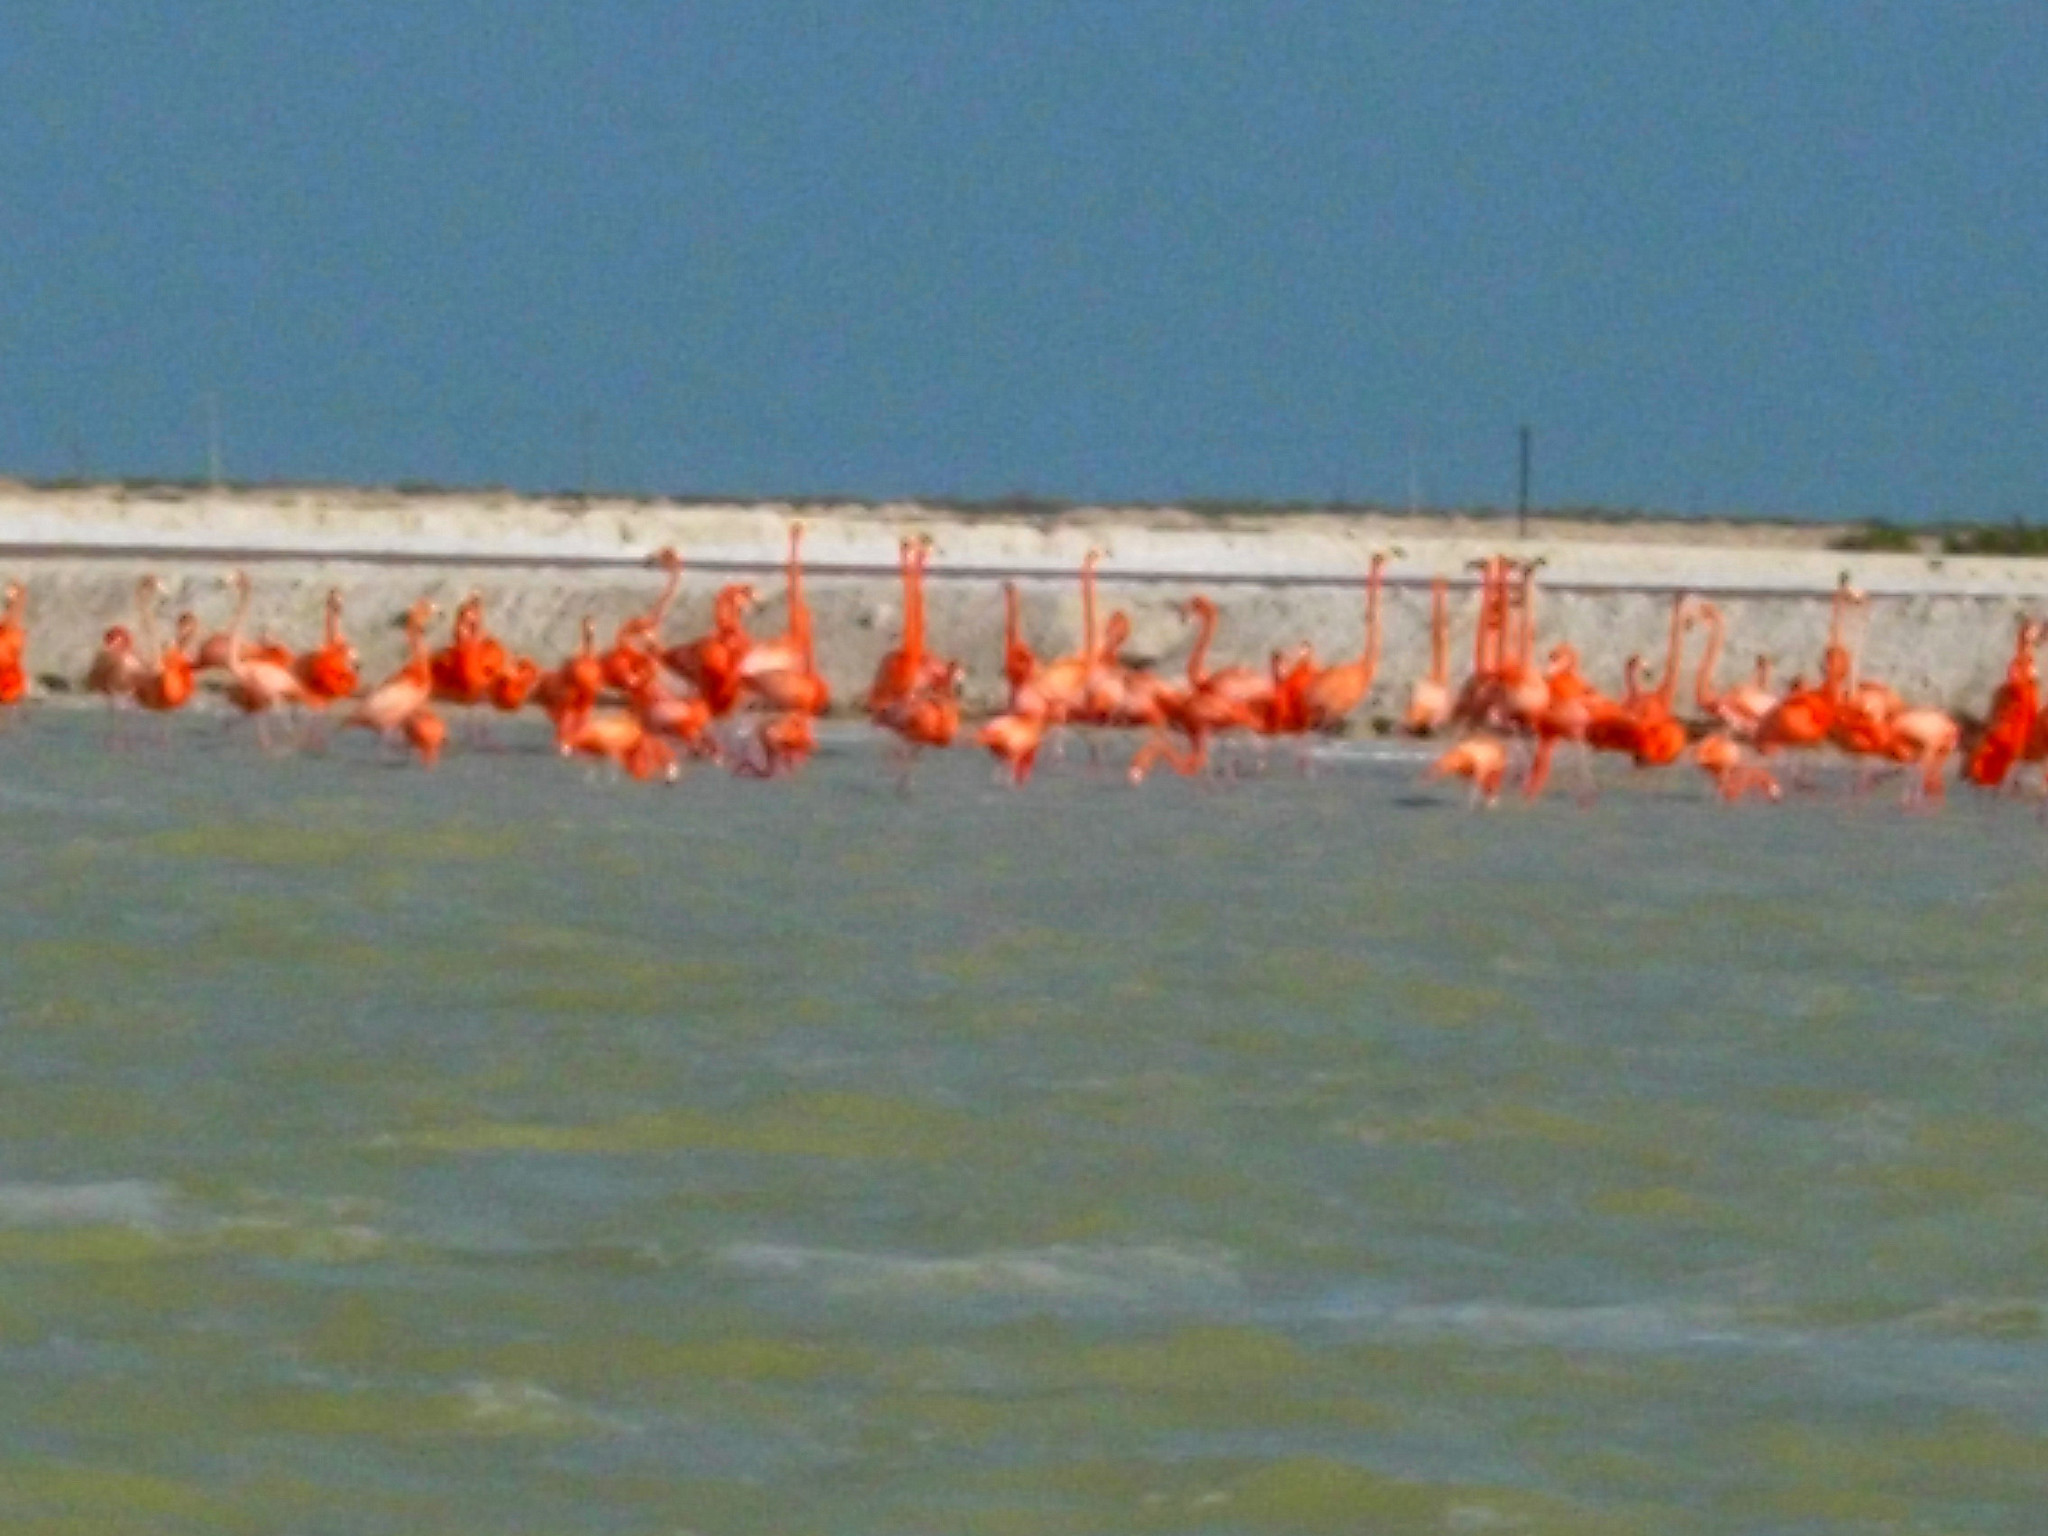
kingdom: Animalia
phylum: Chordata
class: Aves
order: Phoenicopteriformes
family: Phoenicopteridae
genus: Phoenicopterus
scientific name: Phoenicopterus ruber
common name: American flamingo
